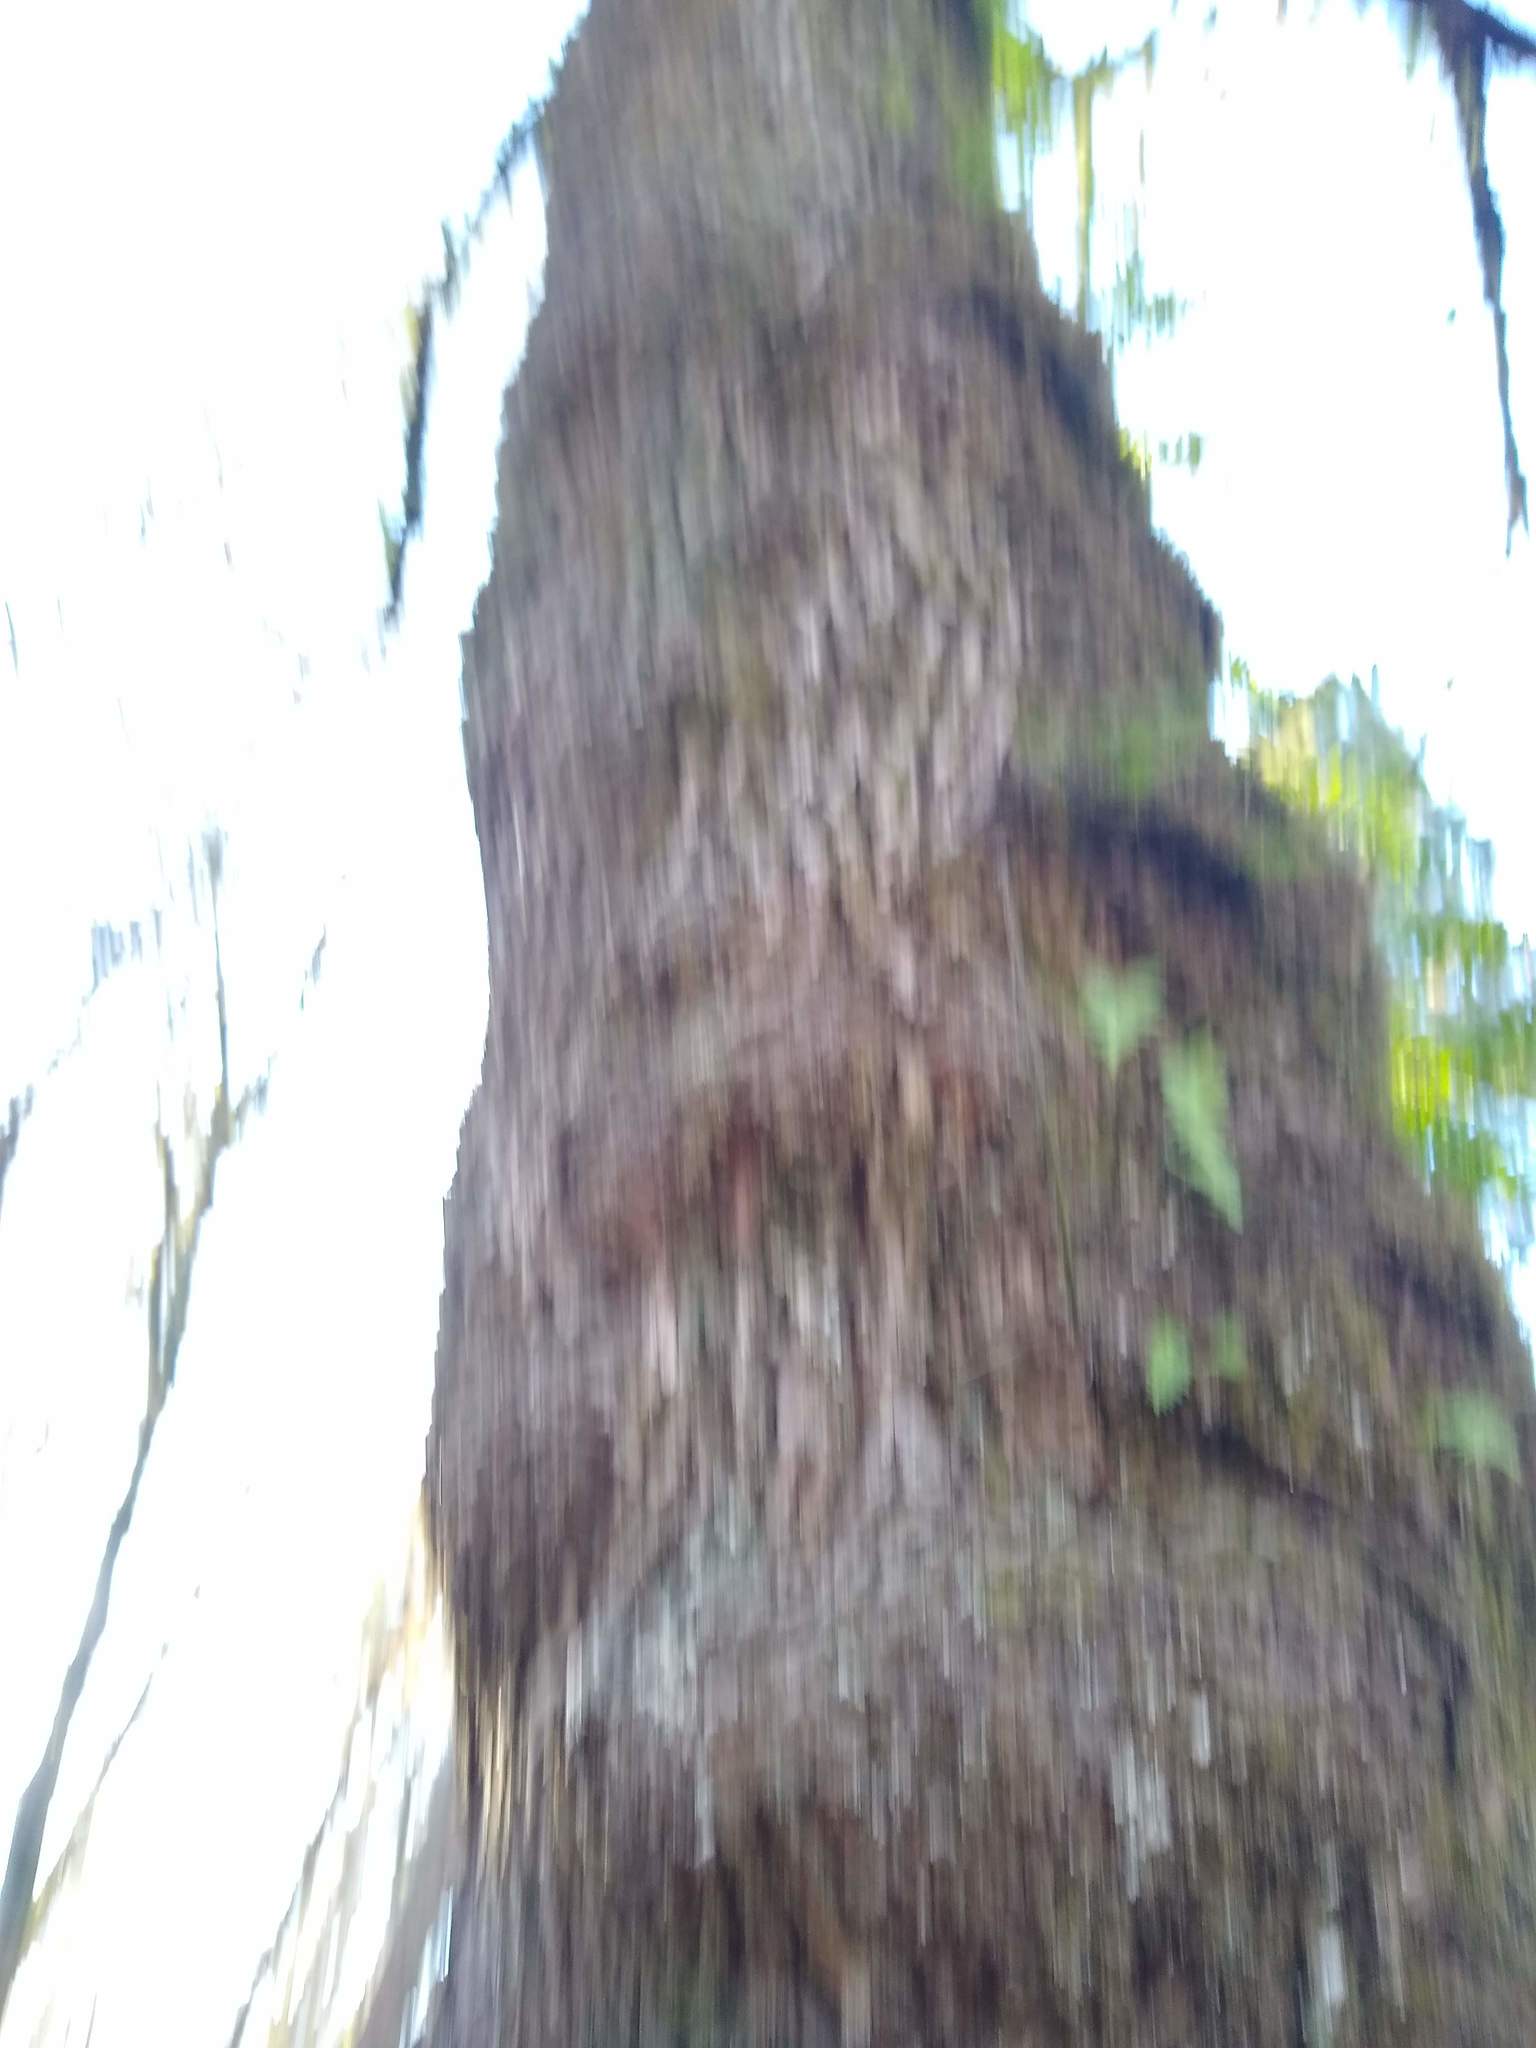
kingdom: Plantae
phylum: Tracheophyta
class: Magnoliopsida
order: Sapindales
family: Sapindaceae
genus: Acer
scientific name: Acer macrophyllum
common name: Oregon maple
